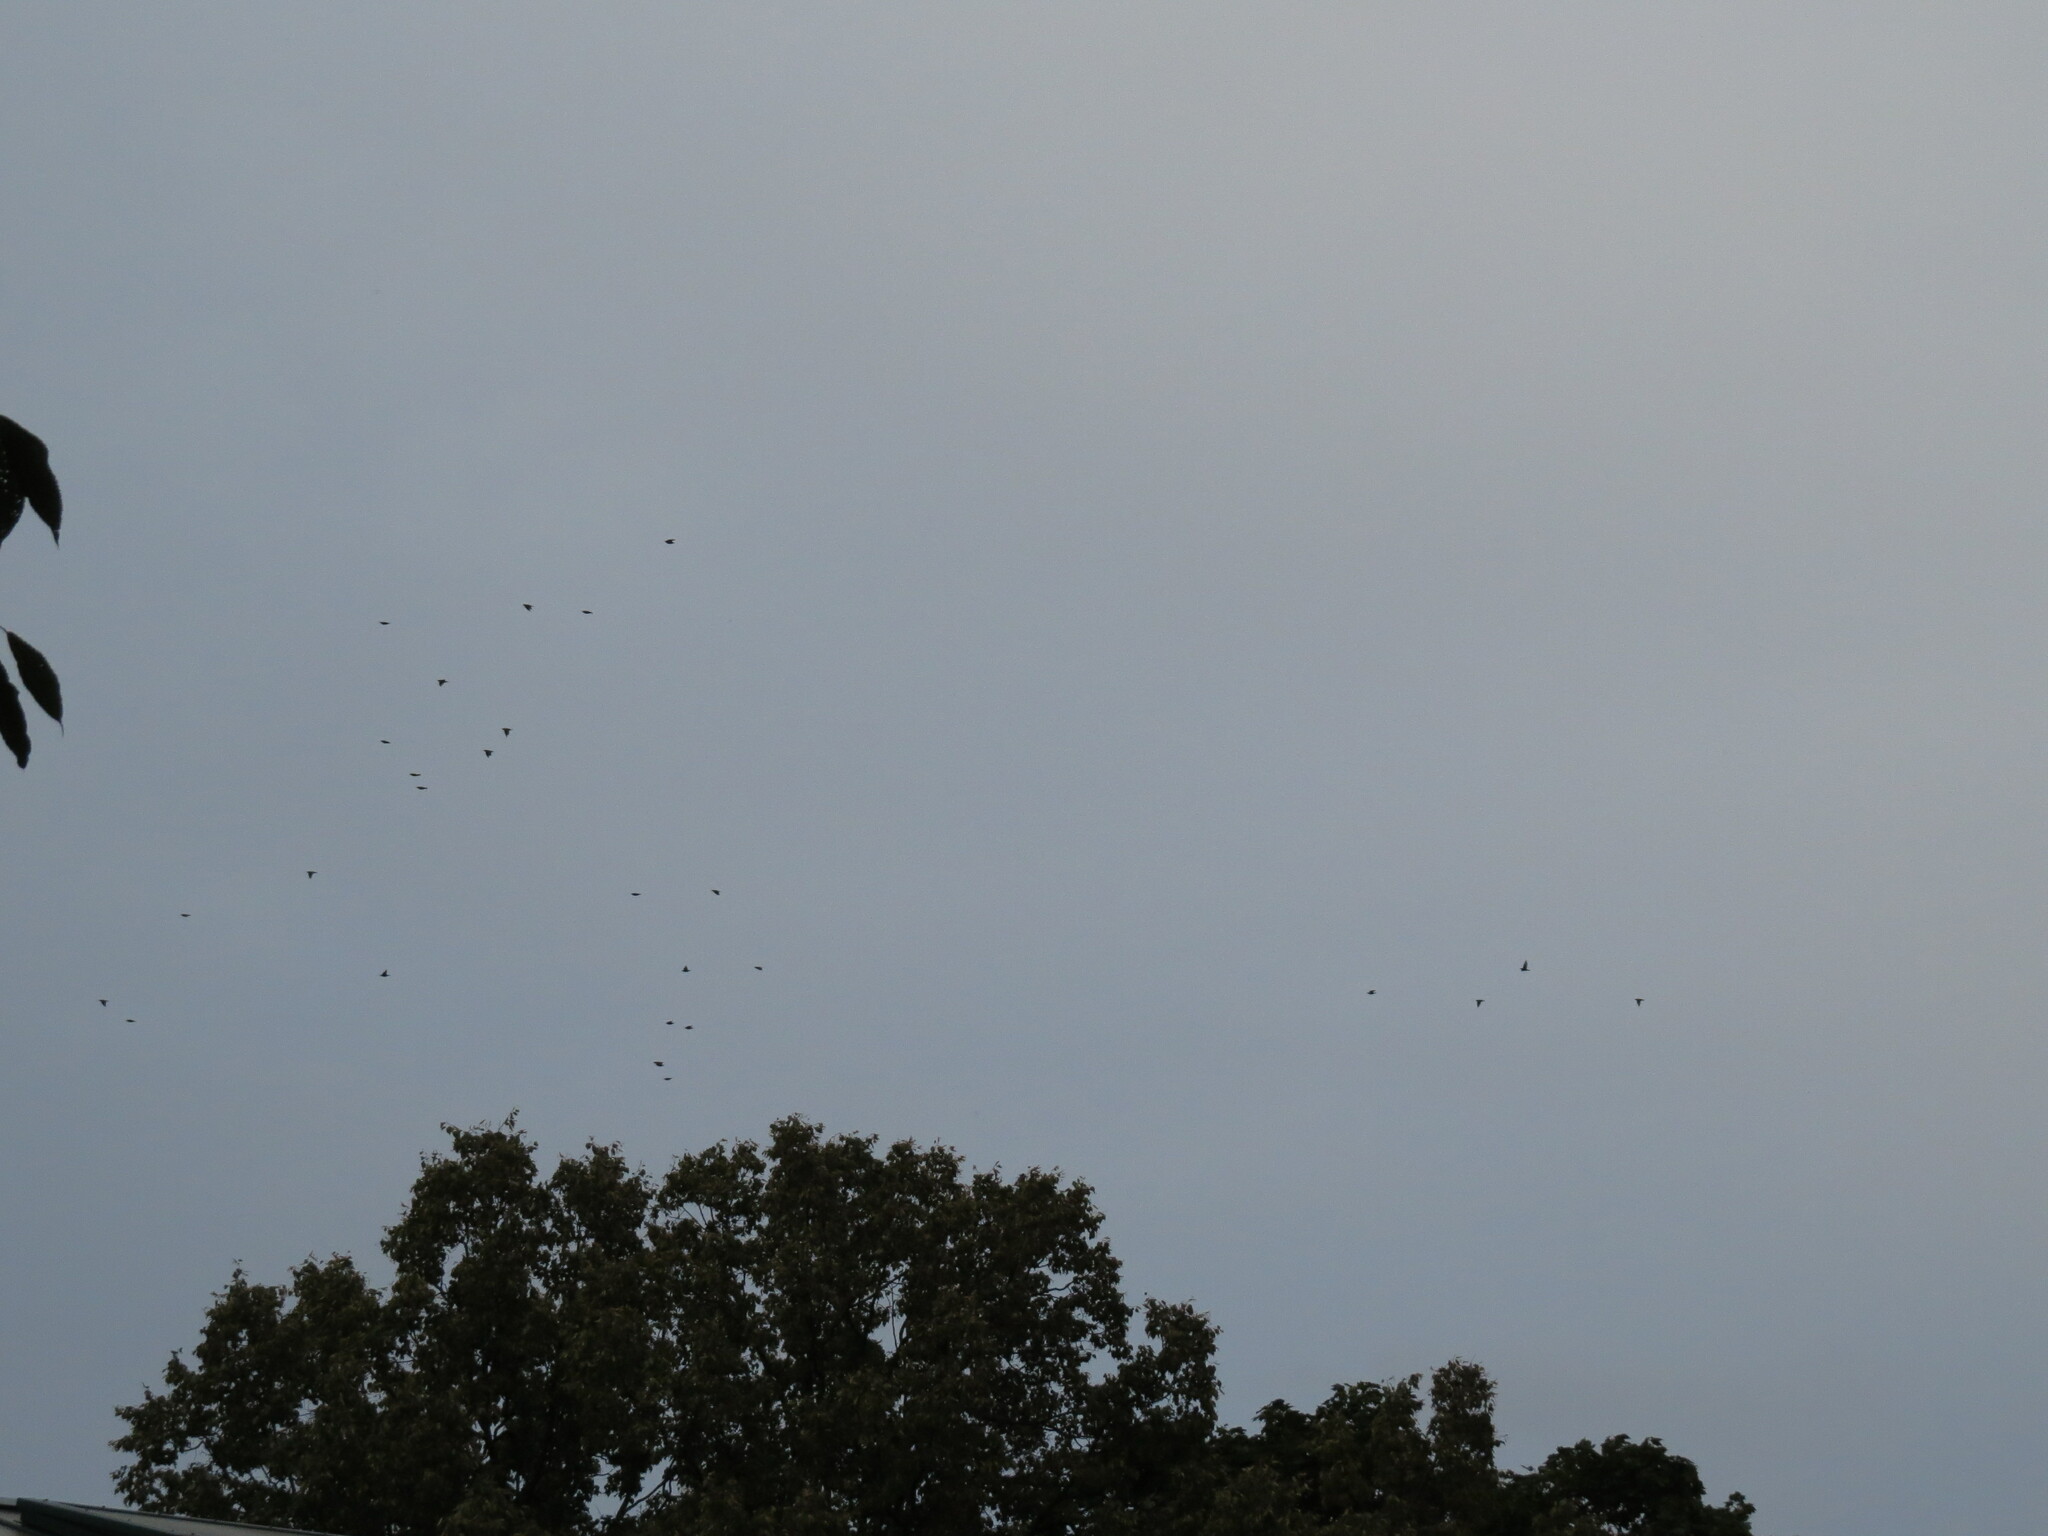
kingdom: Animalia
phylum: Chordata
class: Aves
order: Passeriformes
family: Sturnidae
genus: Sturnus
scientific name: Sturnus vulgaris
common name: Common starling
